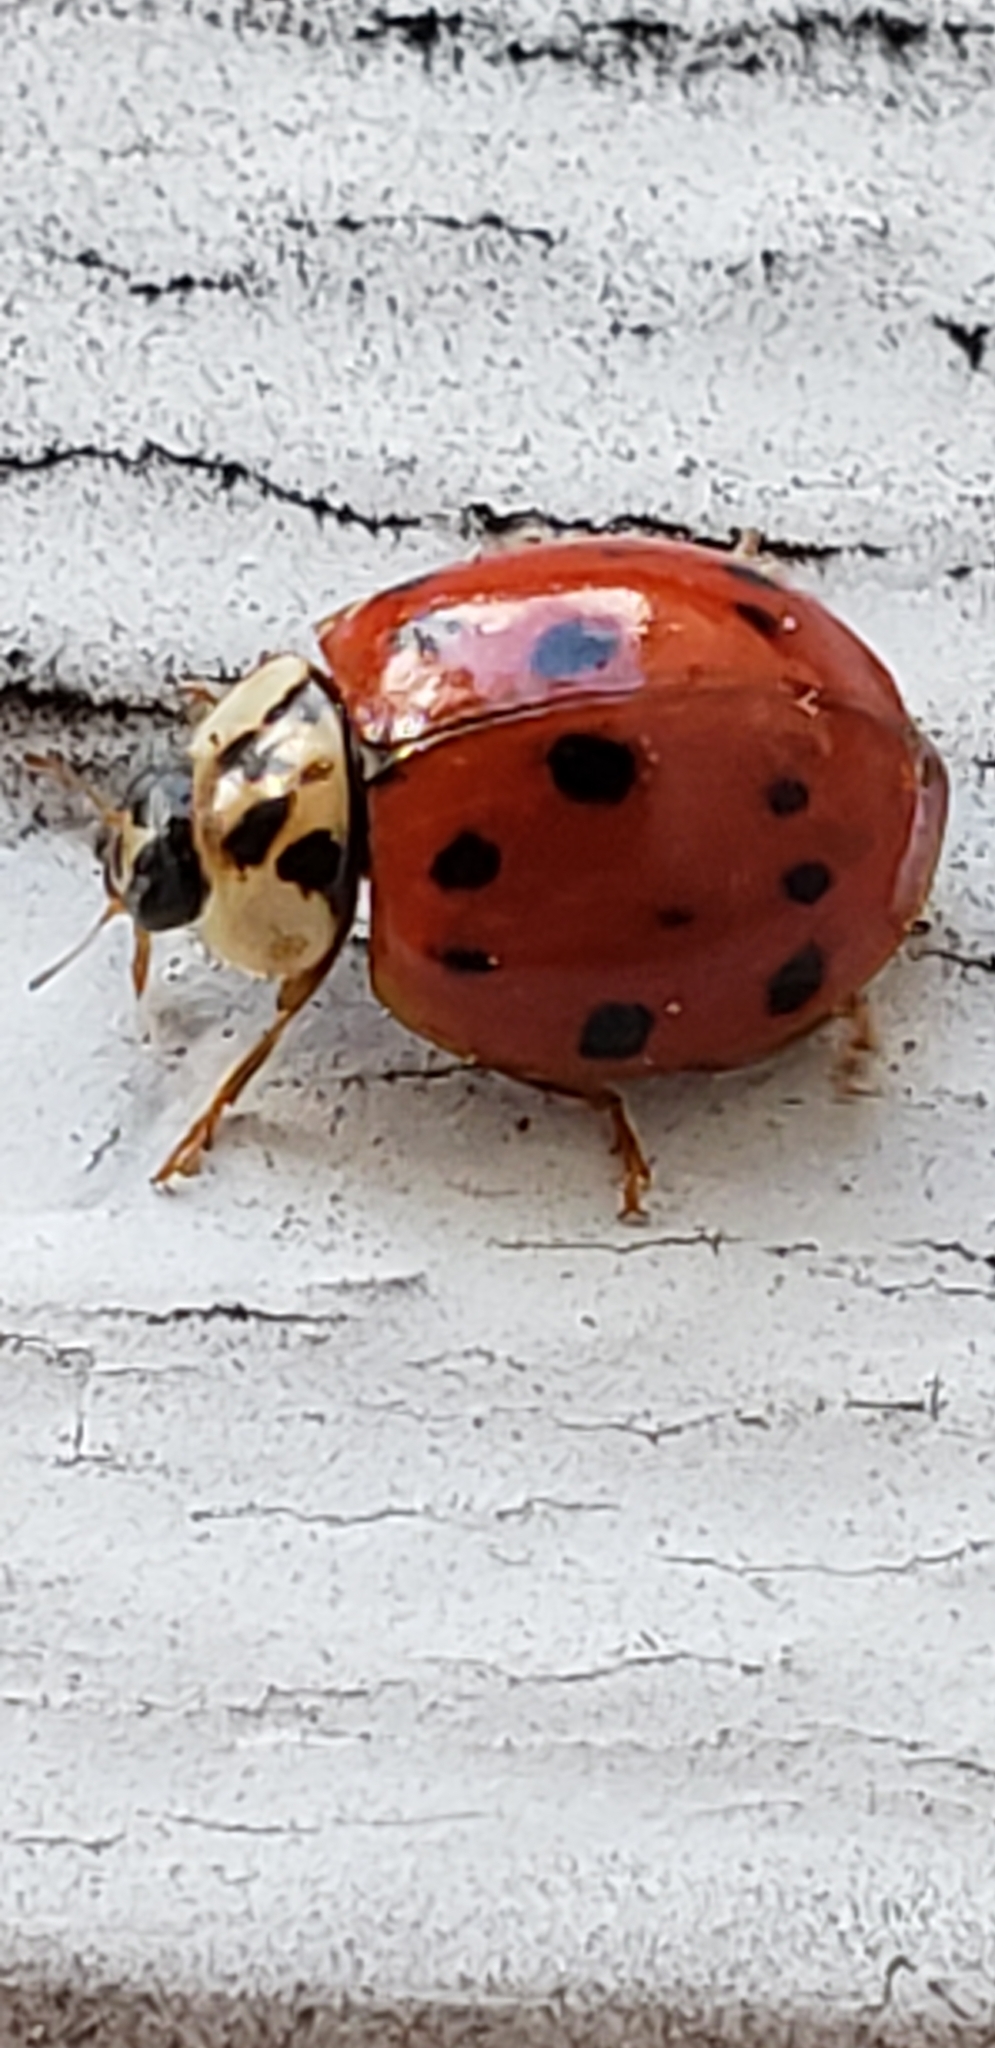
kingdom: Animalia
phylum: Arthropoda
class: Insecta
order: Coleoptera
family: Coccinellidae
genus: Harmonia
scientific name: Harmonia axyridis
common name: Harlequin ladybird
